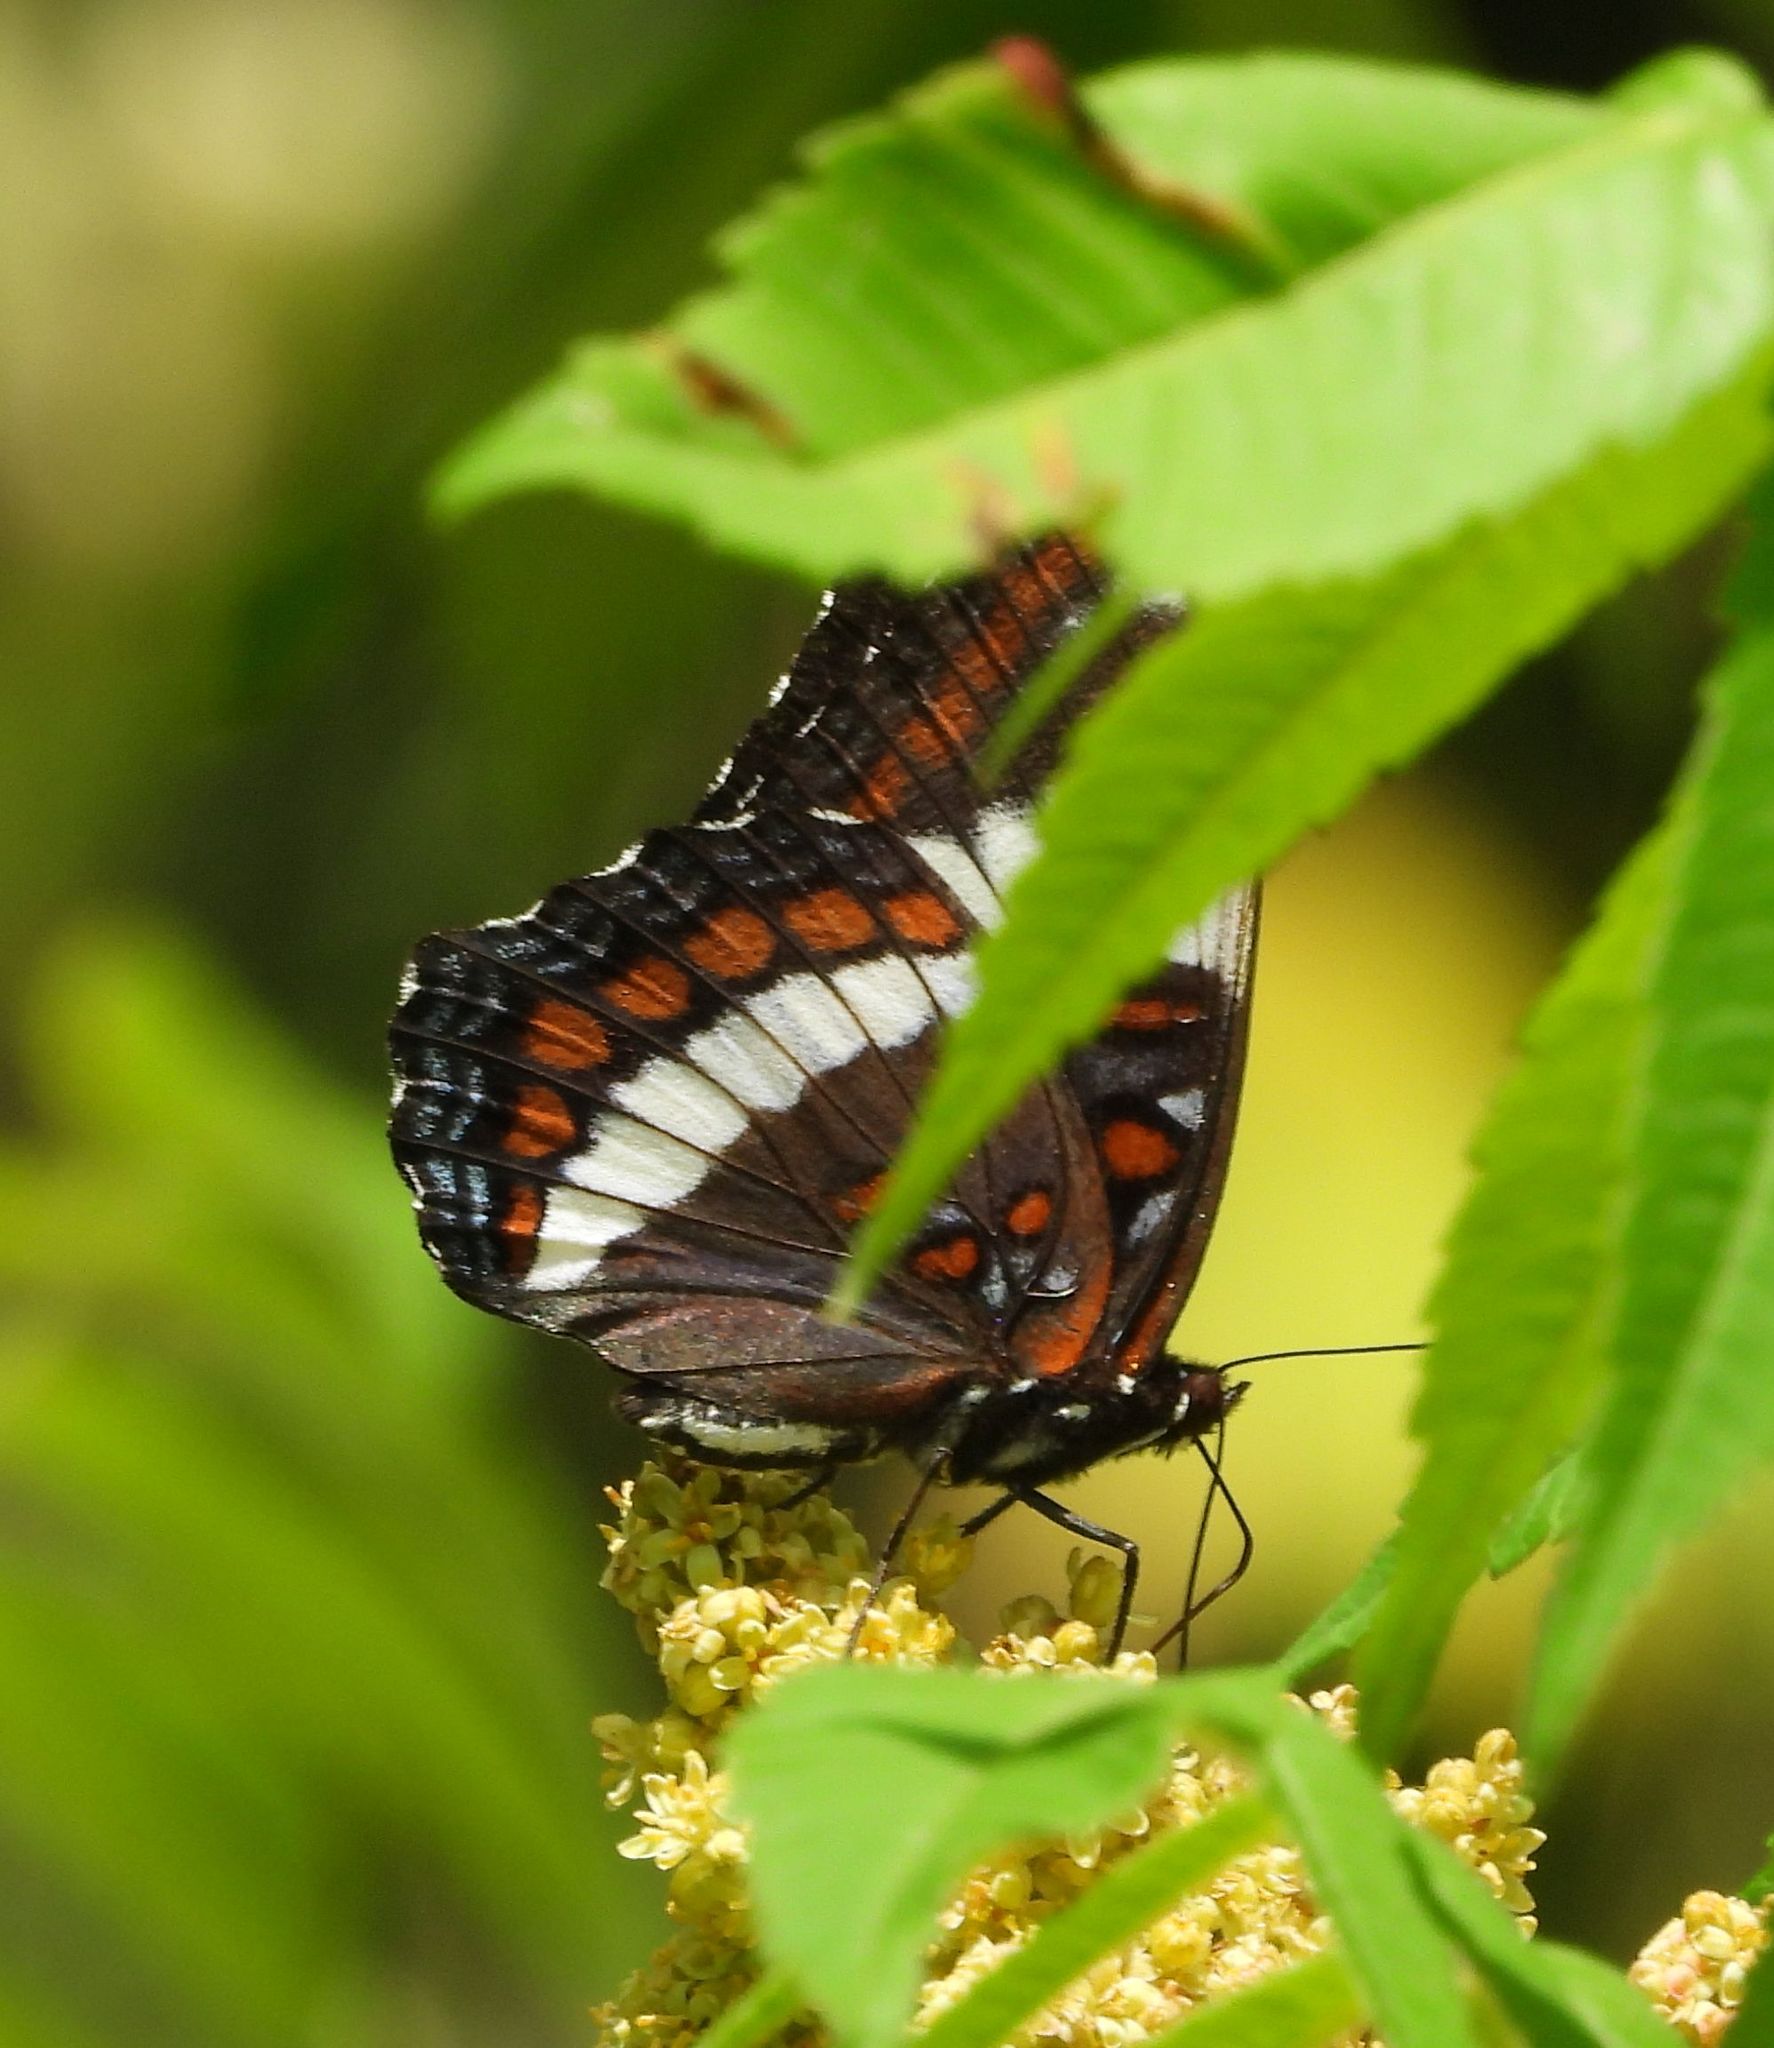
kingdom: Animalia
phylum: Arthropoda
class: Insecta
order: Lepidoptera
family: Nymphalidae
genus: Limenitis
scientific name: Limenitis arthemis
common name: Red-spotted admiral
